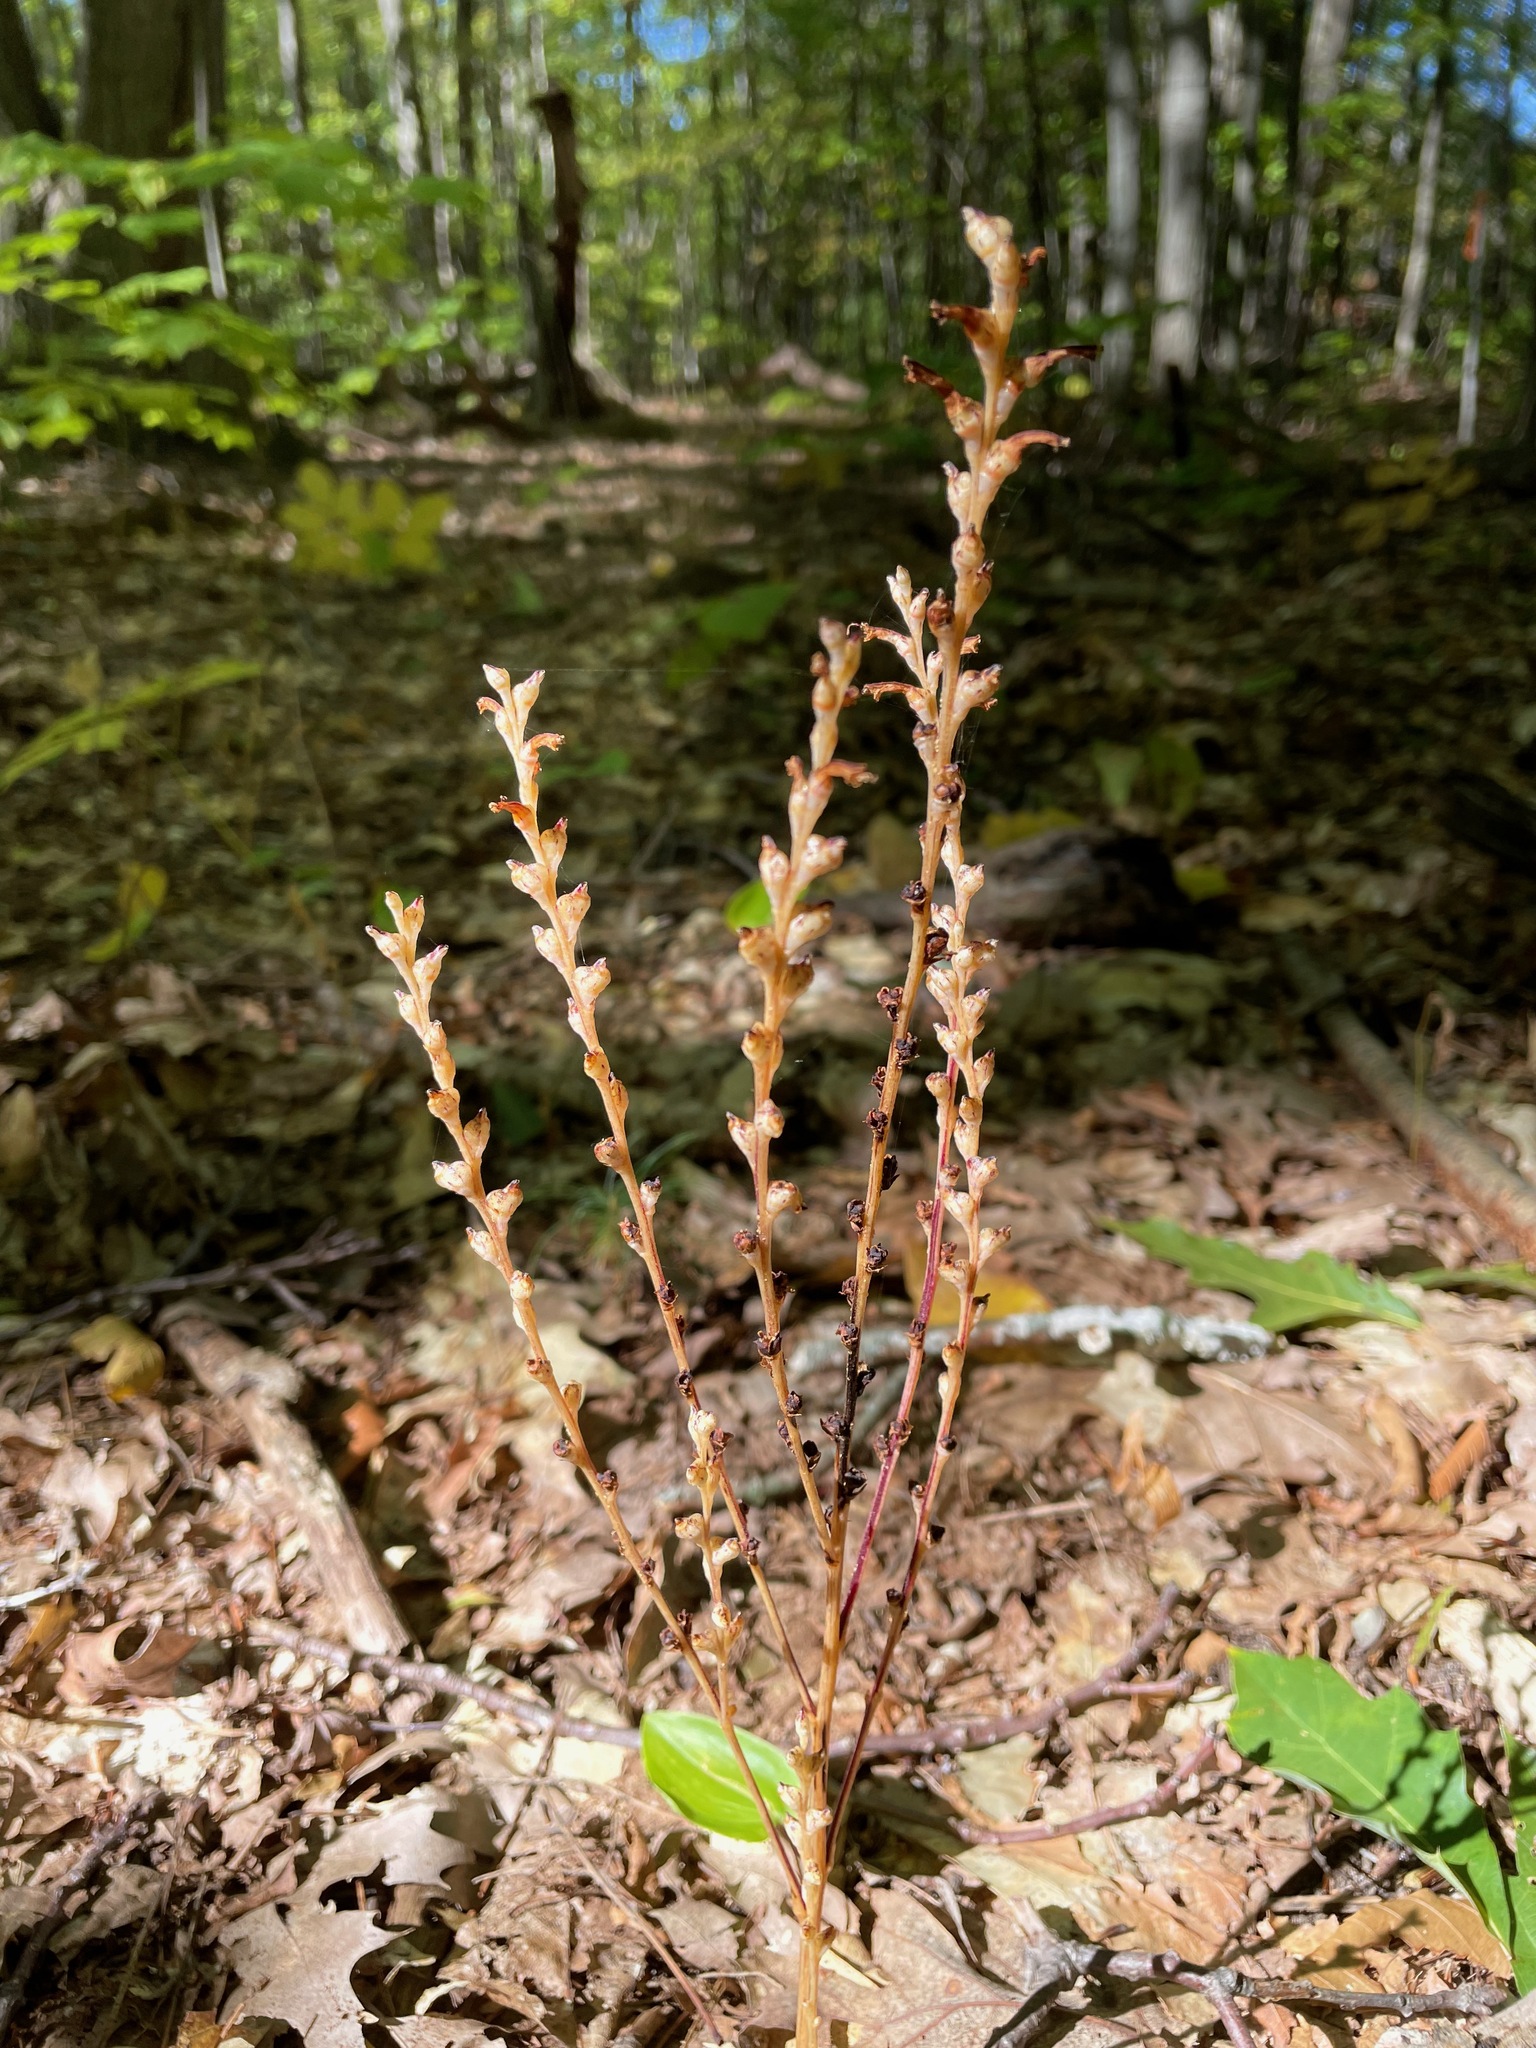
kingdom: Plantae
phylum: Tracheophyta
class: Magnoliopsida
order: Lamiales
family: Orobanchaceae
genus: Epifagus
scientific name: Epifagus virginiana
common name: Beechdrops
